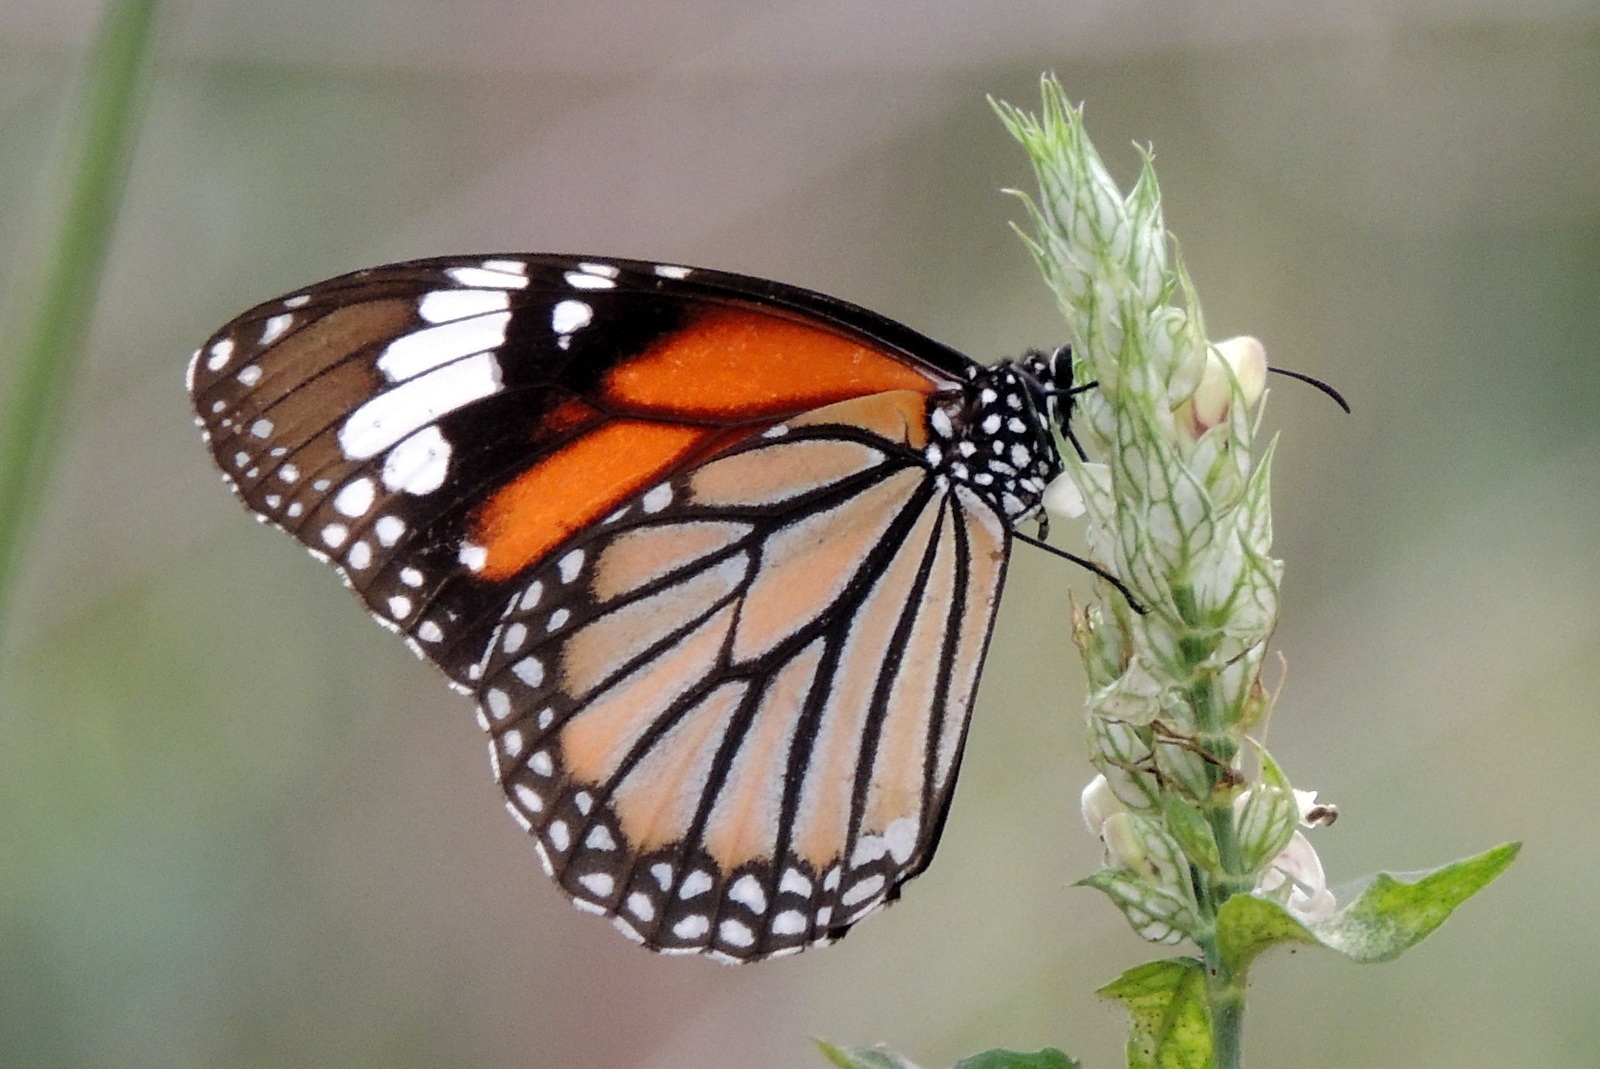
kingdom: Animalia
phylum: Arthropoda
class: Insecta
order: Lepidoptera
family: Nymphalidae
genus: Danaus
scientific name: Danaus genutia
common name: Common tiger butterfly
